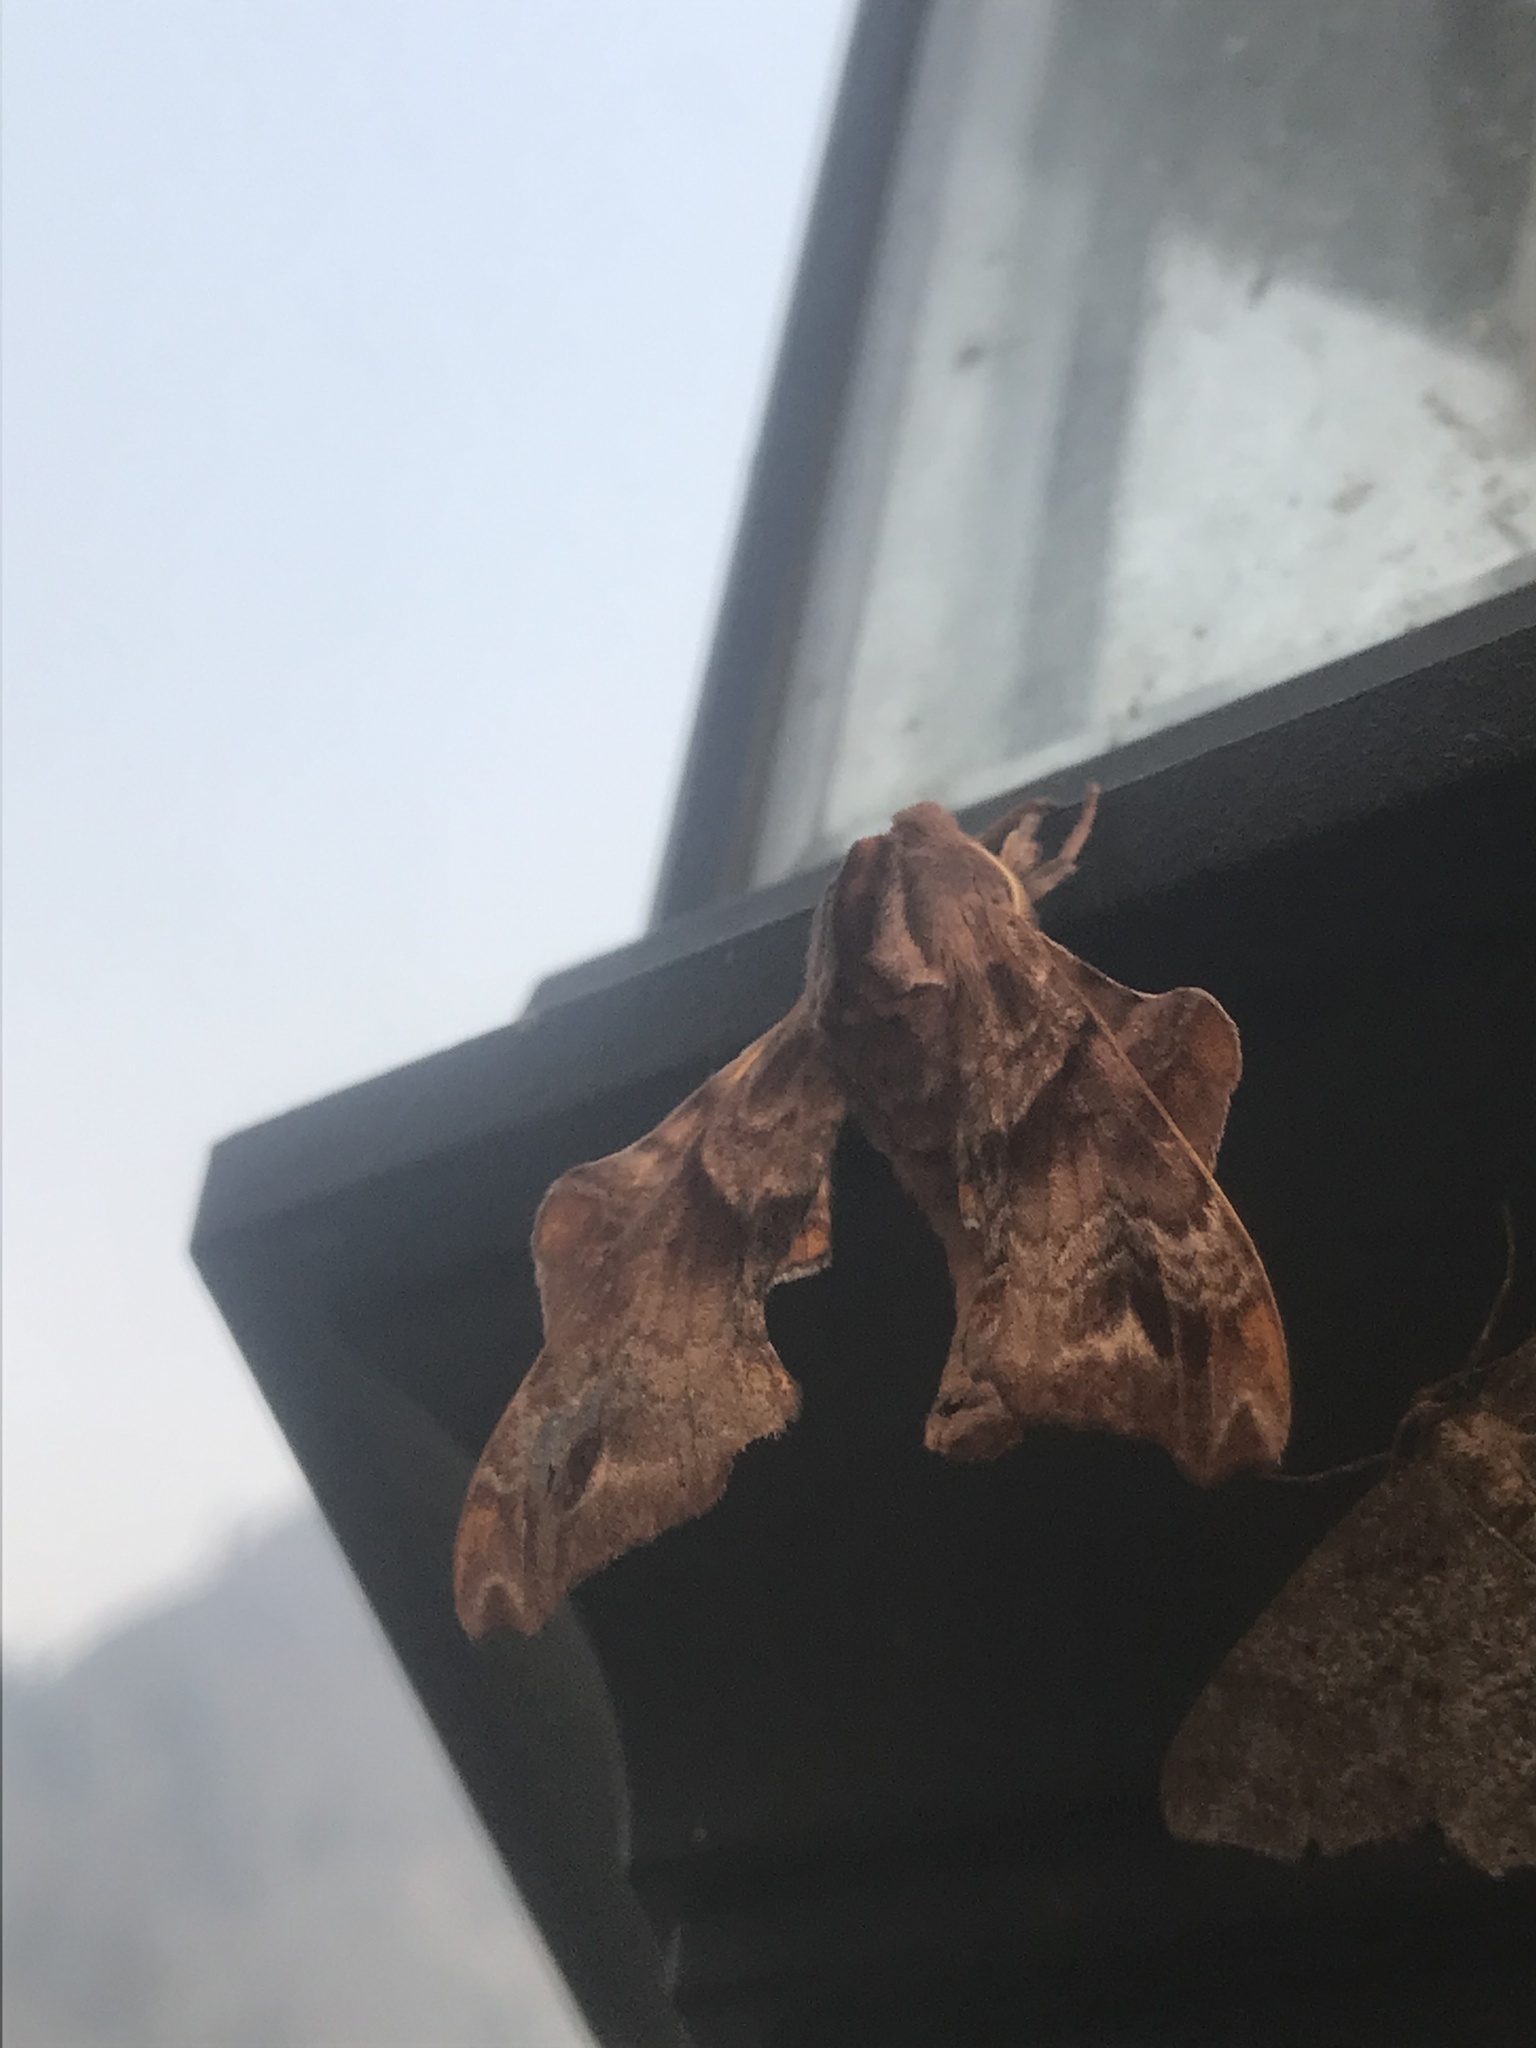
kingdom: Animalia
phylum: Arthropoda
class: Insecta
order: Lepidoptera
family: Sphingidae
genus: Paonias
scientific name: Paonias myops
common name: Small-eyed sphinx
